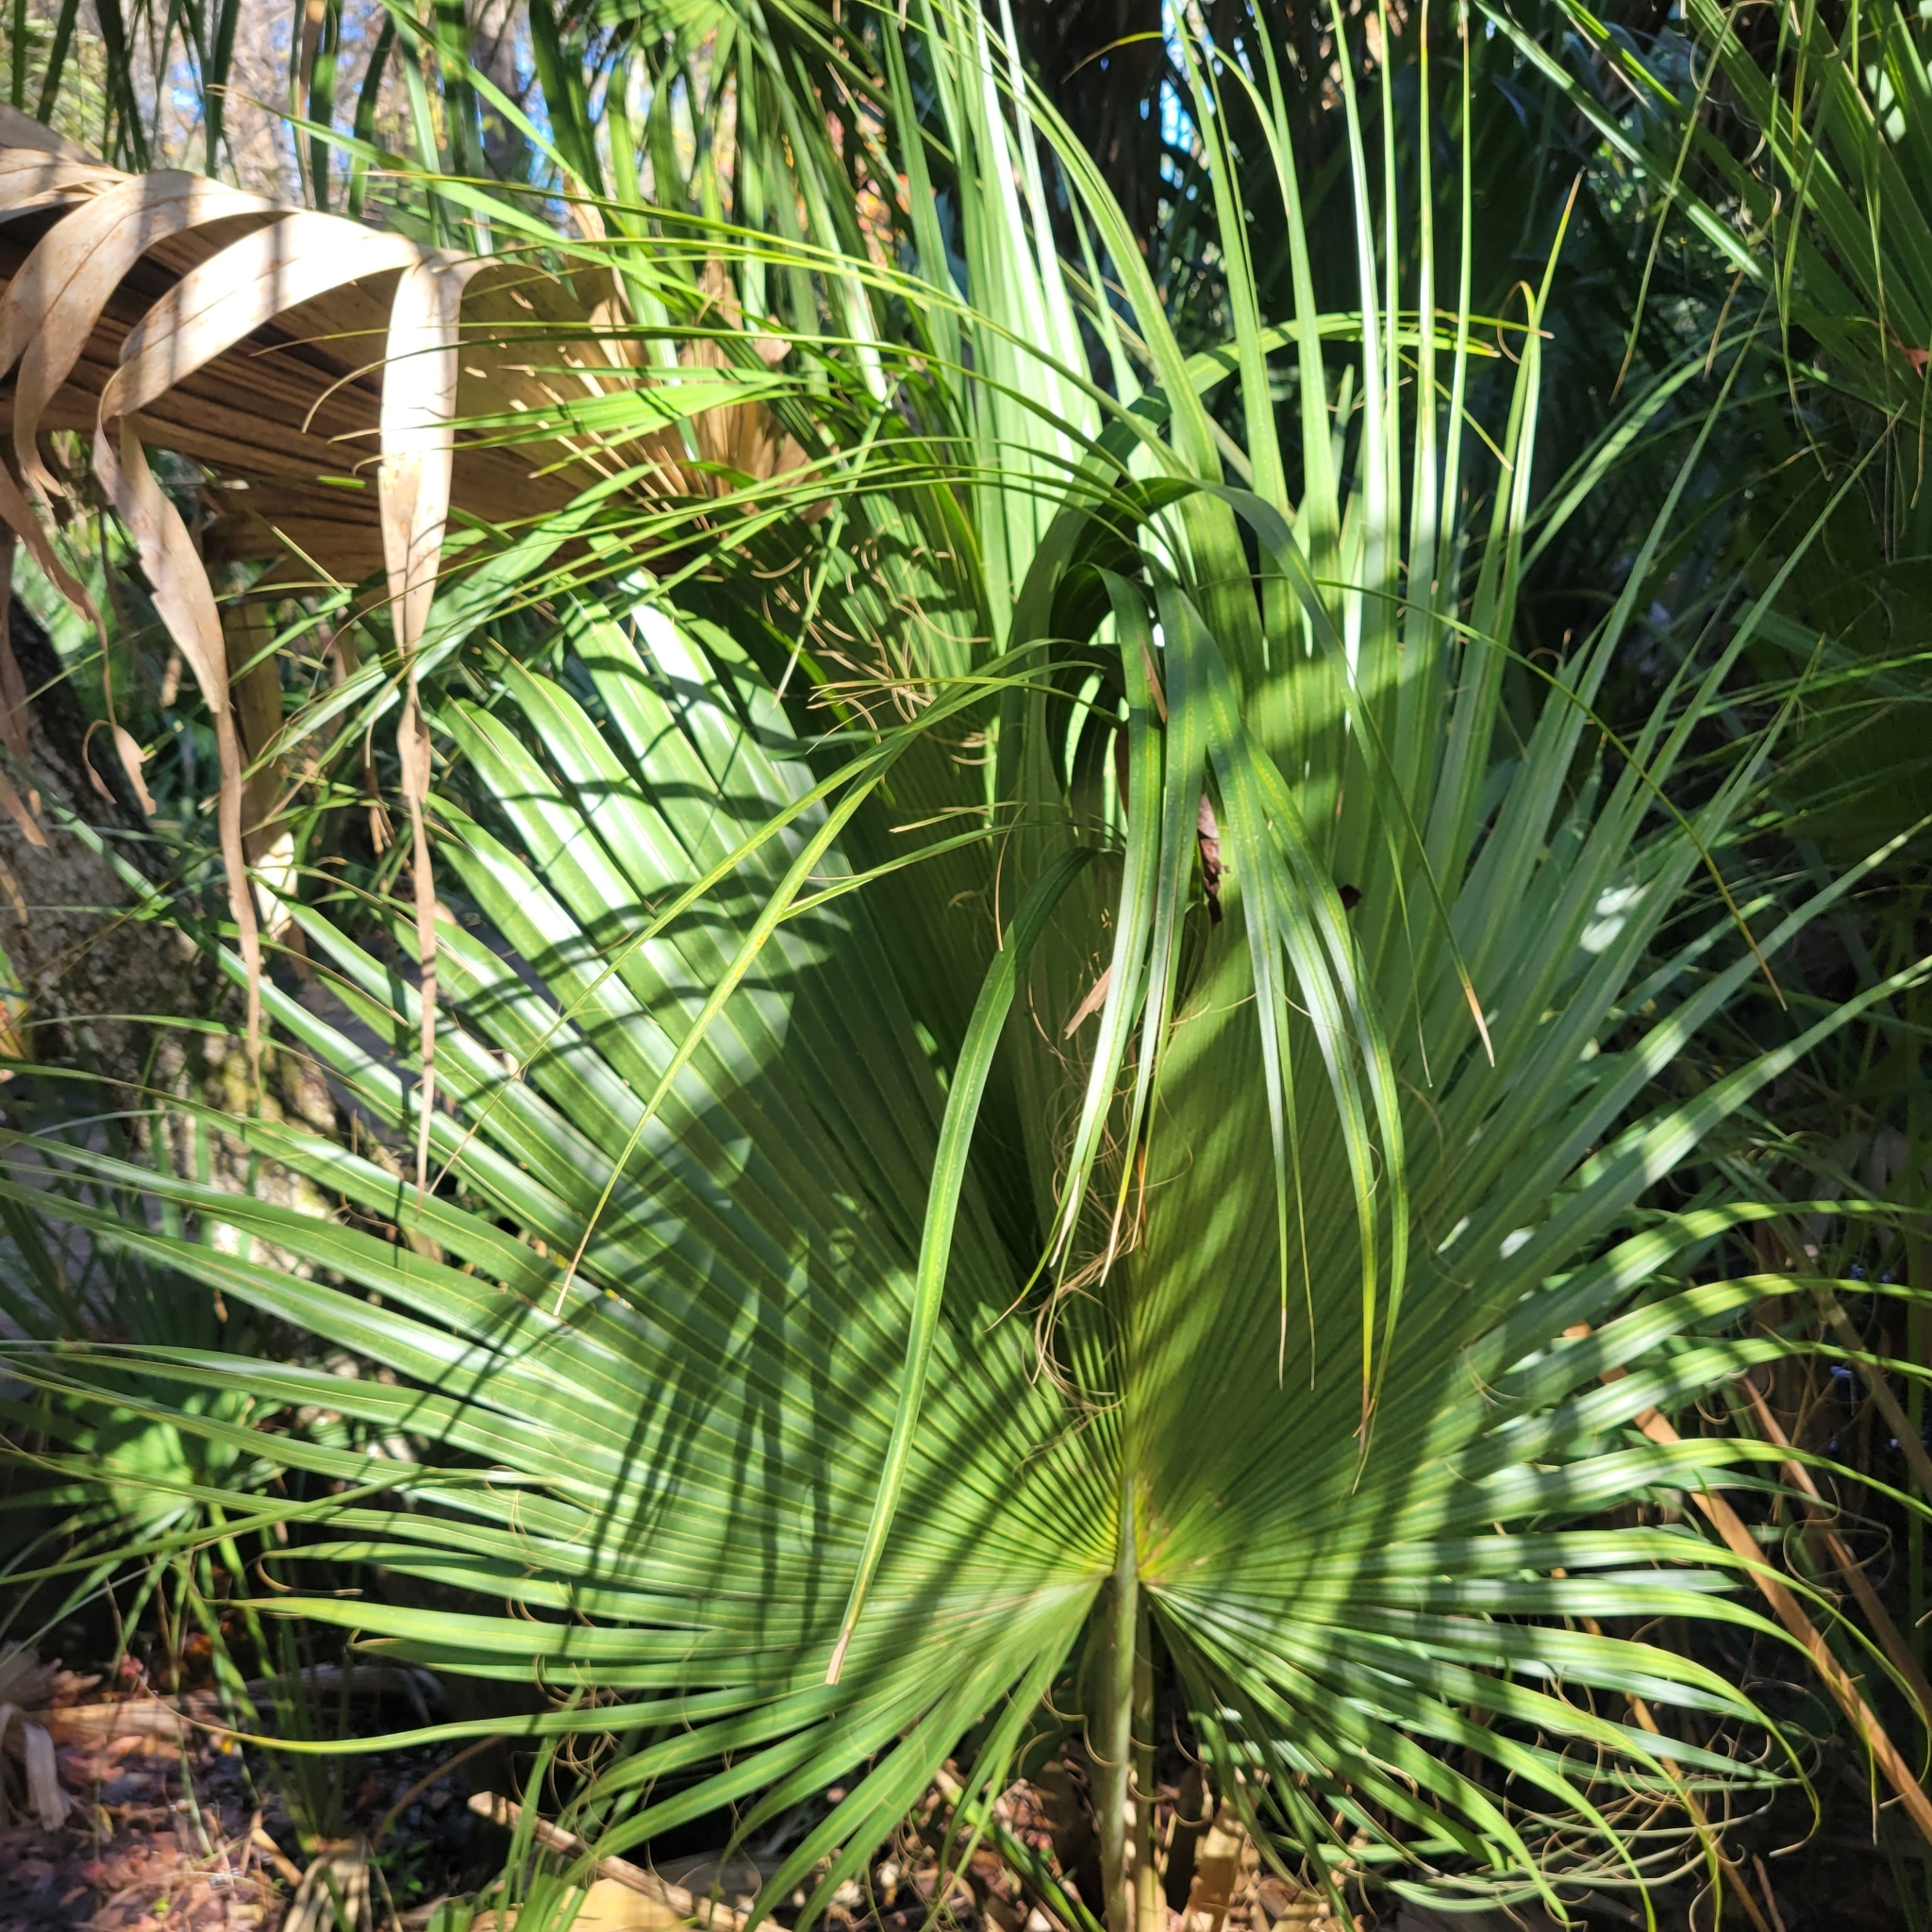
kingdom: Plantae
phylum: Tracheophyta
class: Liliopsida
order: Arecales
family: Arecaceae
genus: Sabal
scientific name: Sabal palmetto
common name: Blue palmetto
